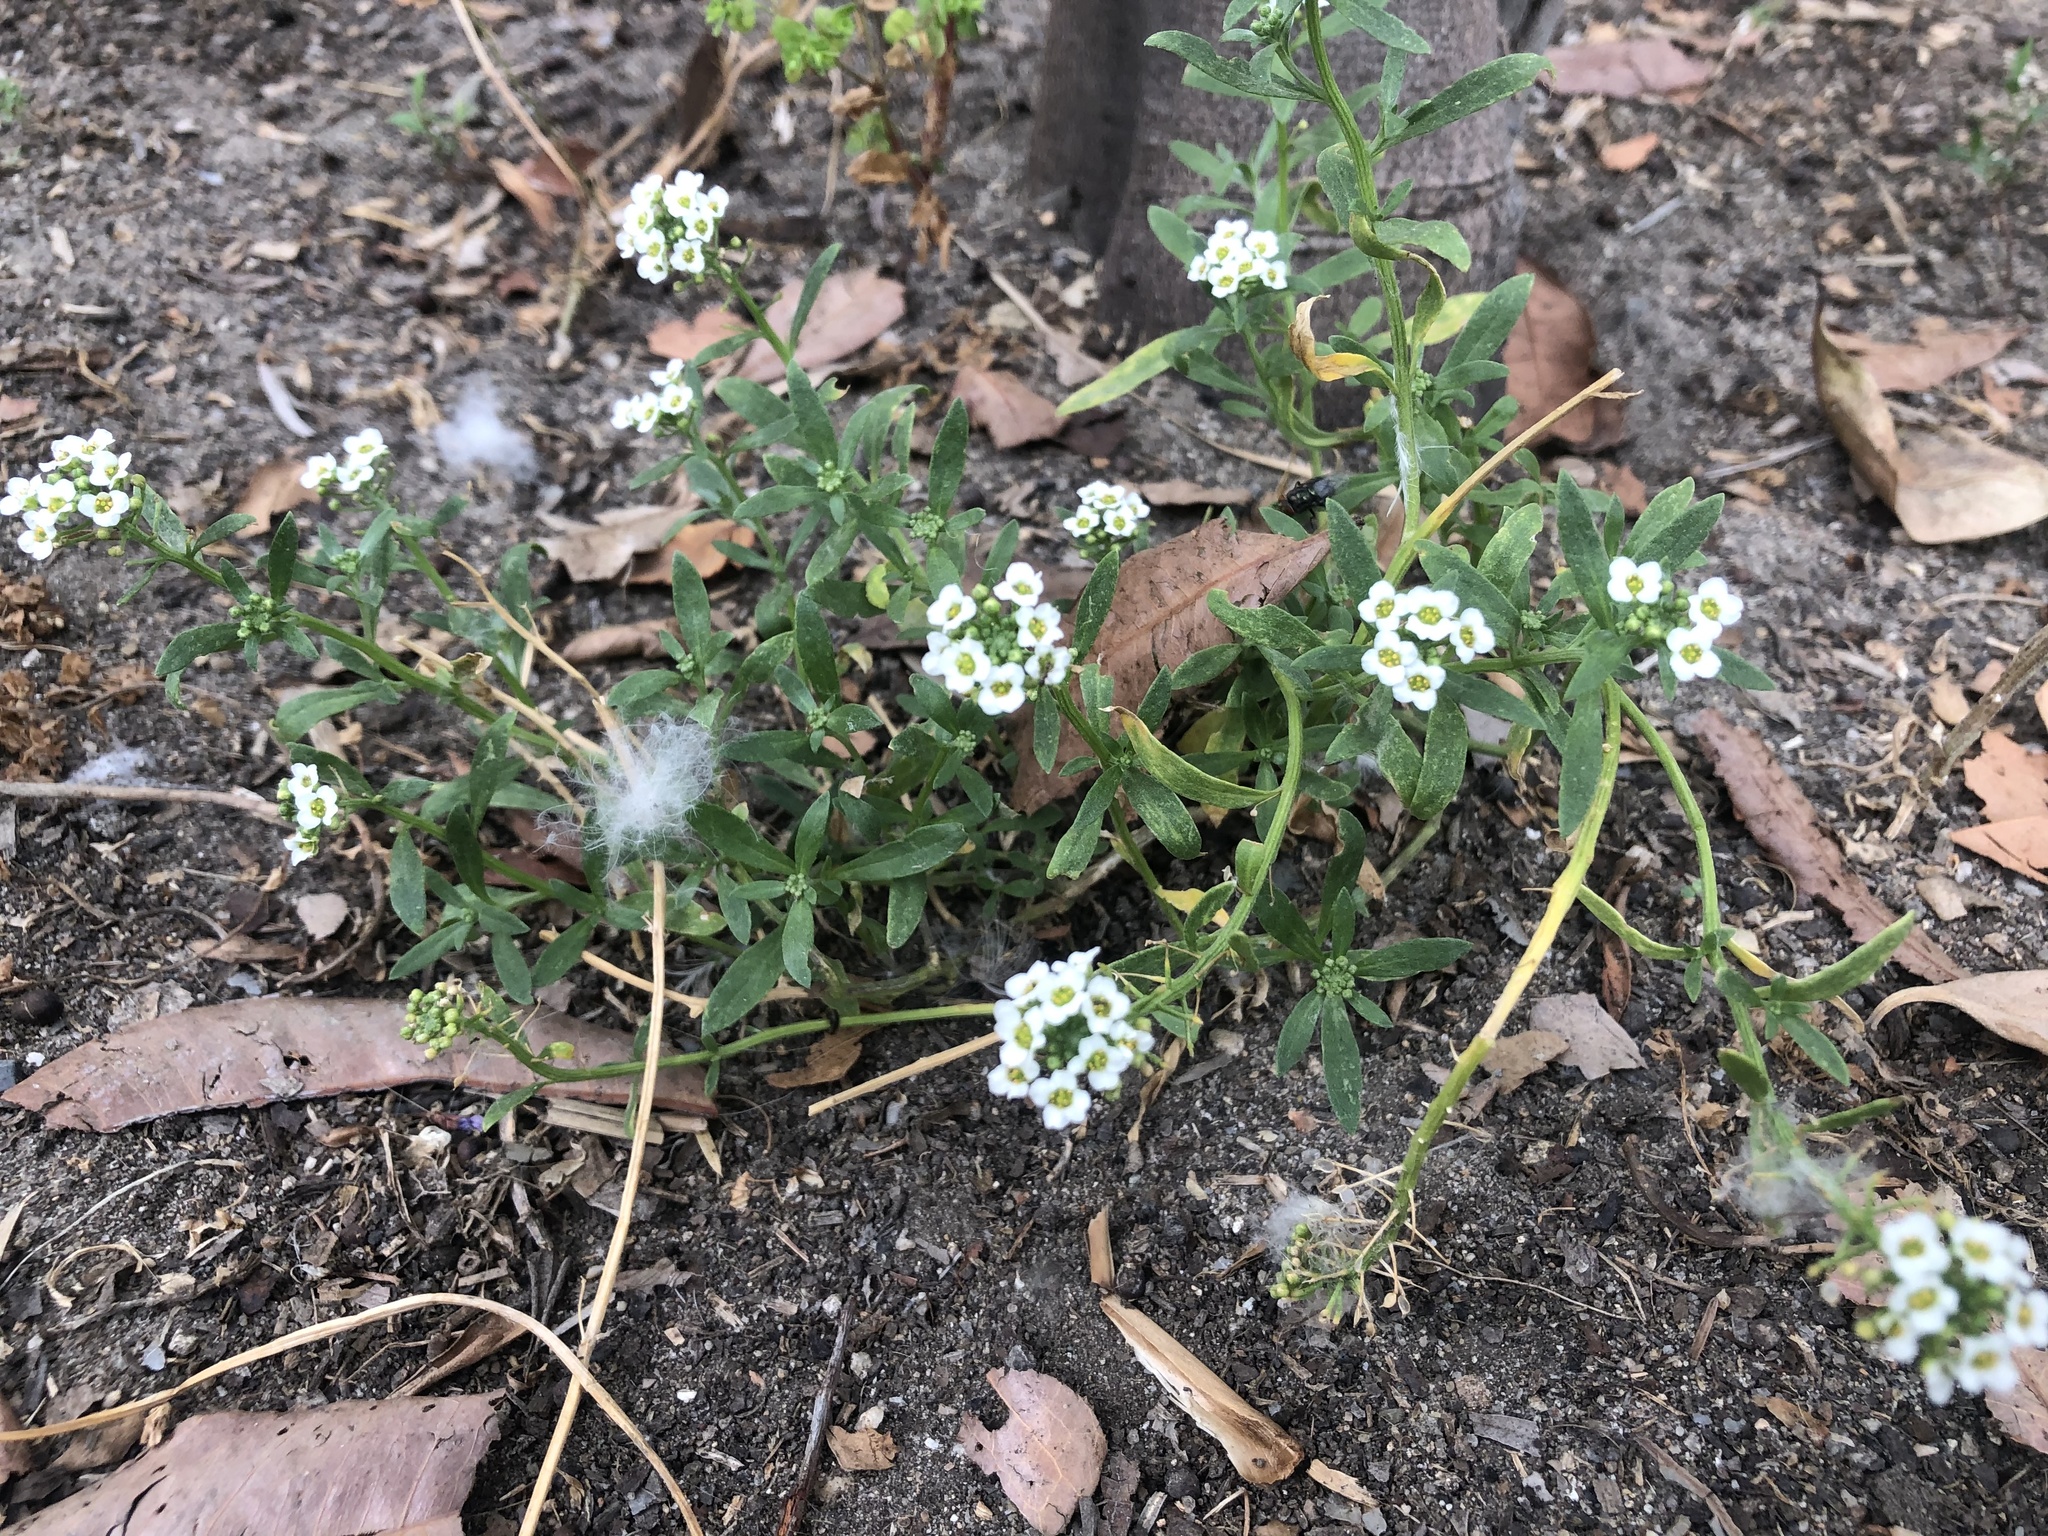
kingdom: Plantae
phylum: Tracheophyta
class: Magnoliopsida
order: Brassicales
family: Brassicaceae
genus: Lobularia
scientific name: Lobularia maritima
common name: Sweet alison
